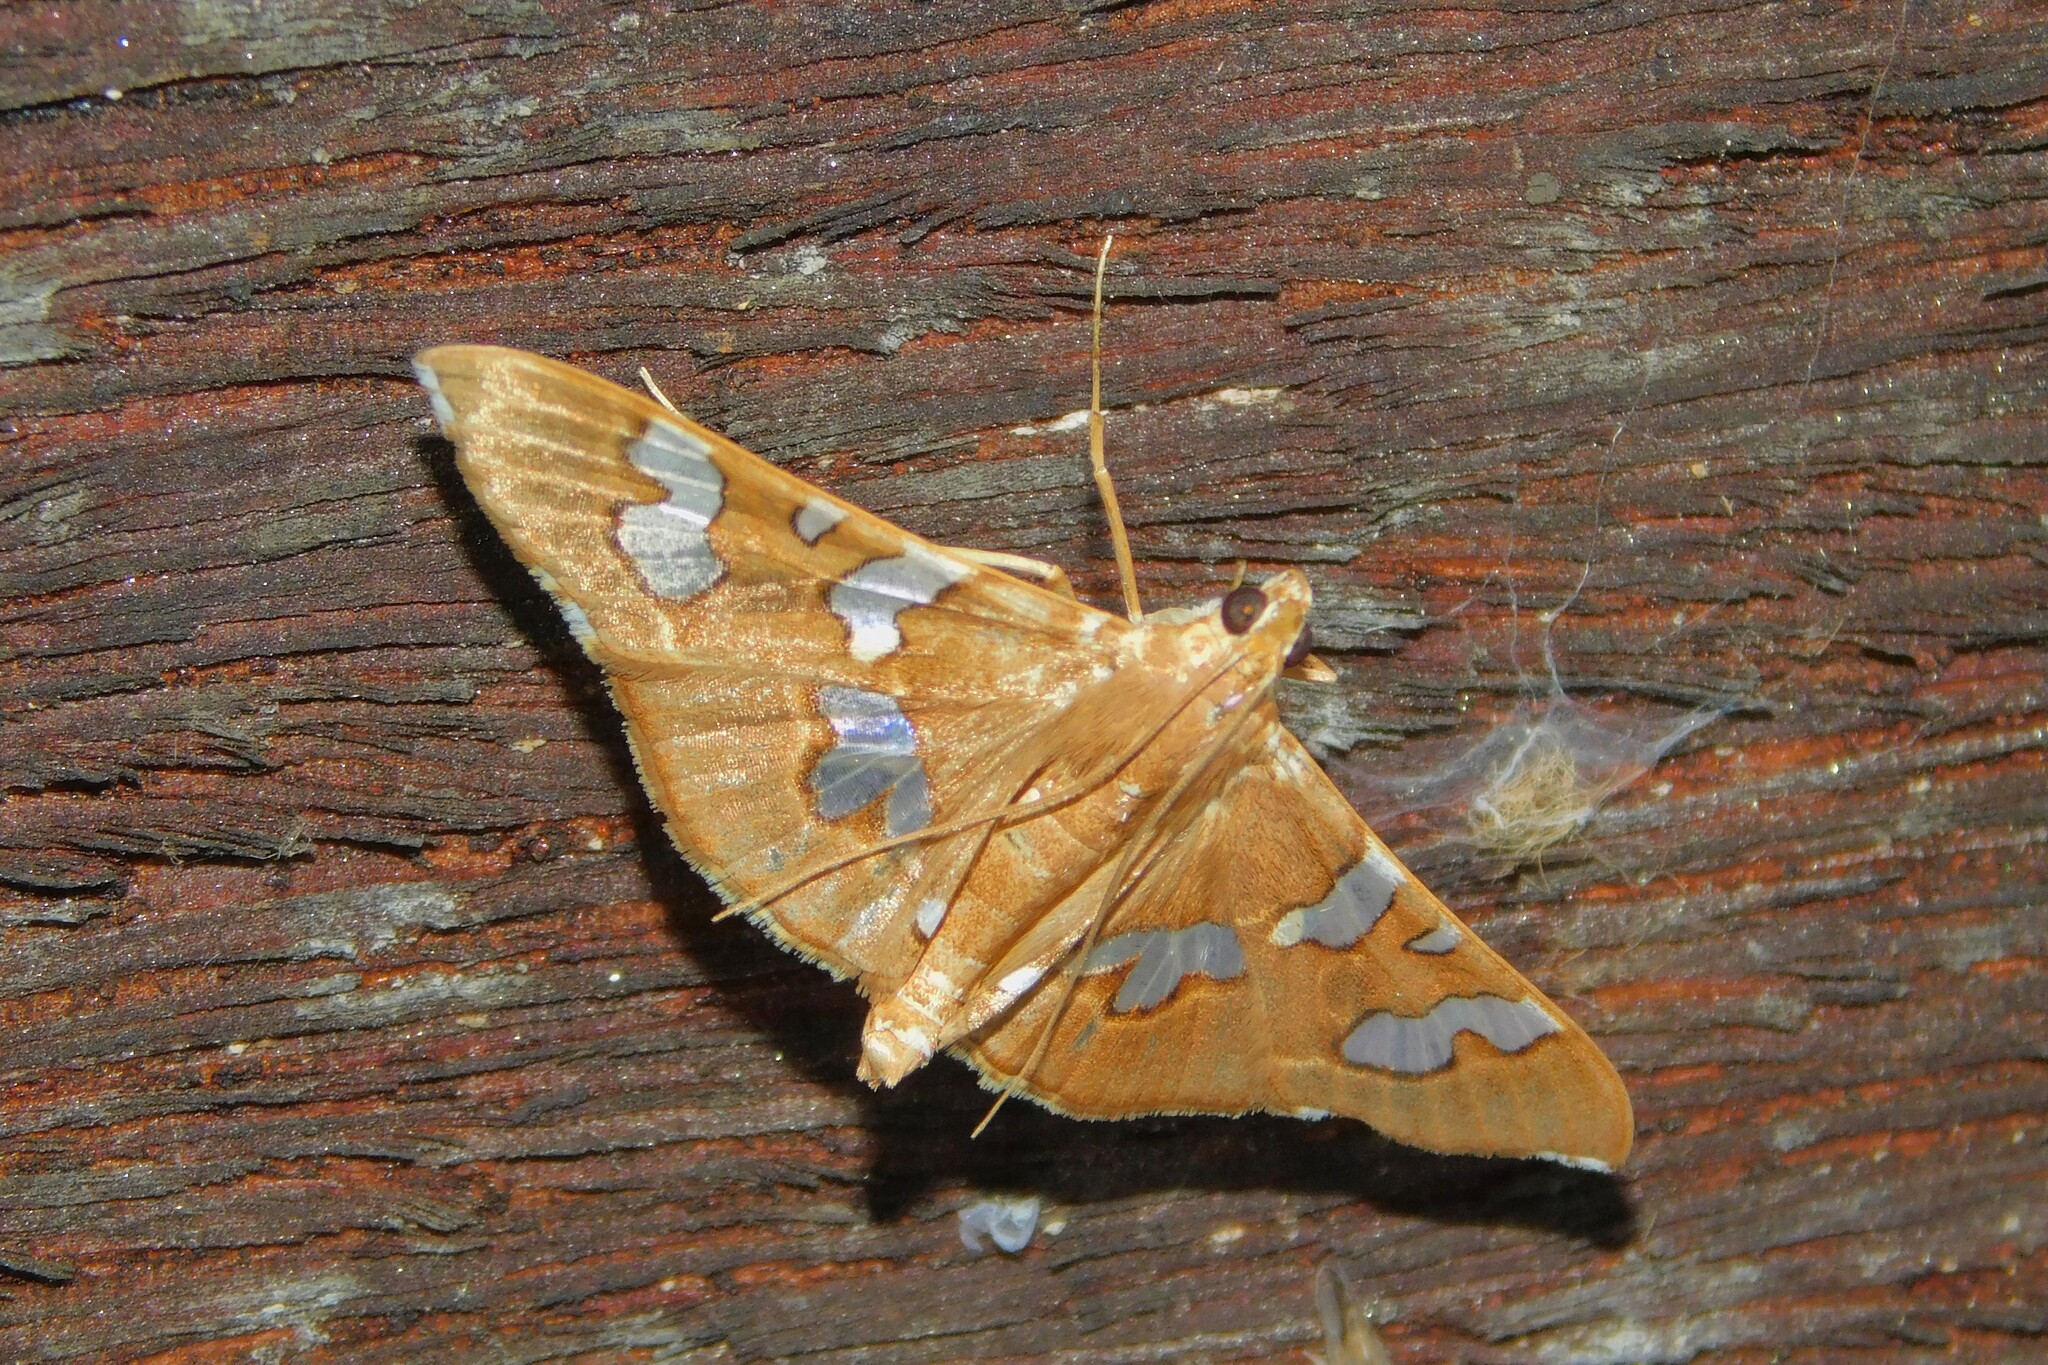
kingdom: Animalia
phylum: Arthropoda
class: Insecta
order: Lepidoptera
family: Crambidae
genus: Glyphodes
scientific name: Glyphodes incomposita
